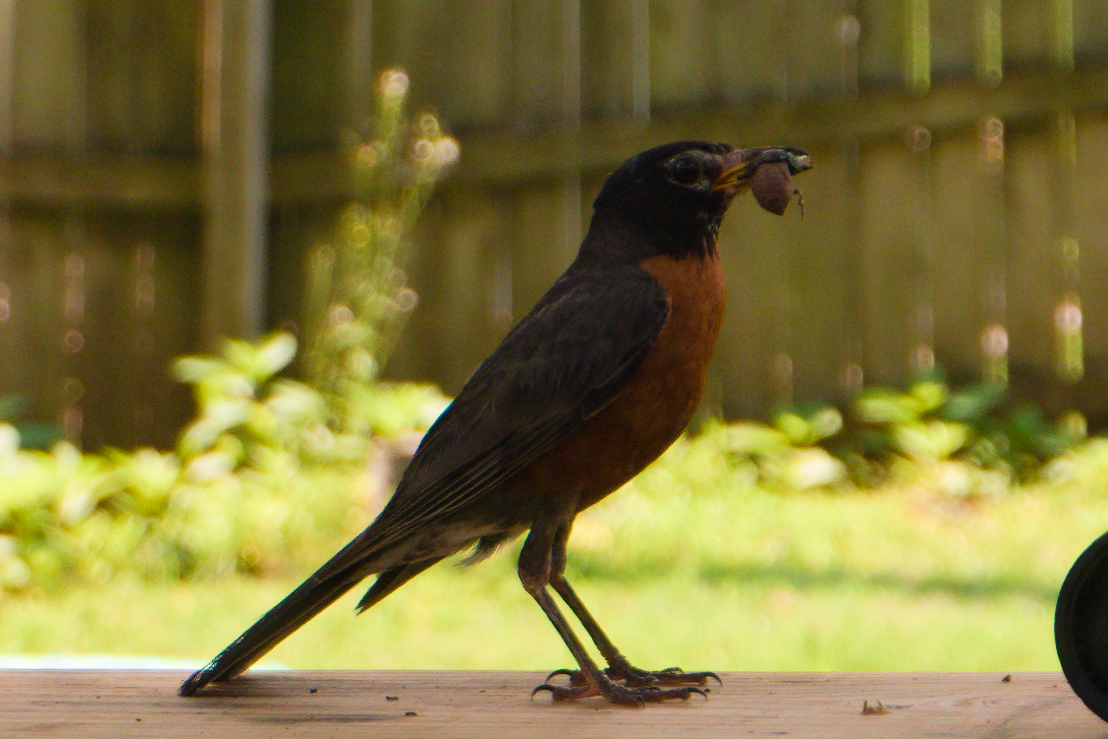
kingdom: Animalia
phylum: Chordata
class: Aves
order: Passeriformes
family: Turdidae
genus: Turdus
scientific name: Turdus migratorius
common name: American robin
